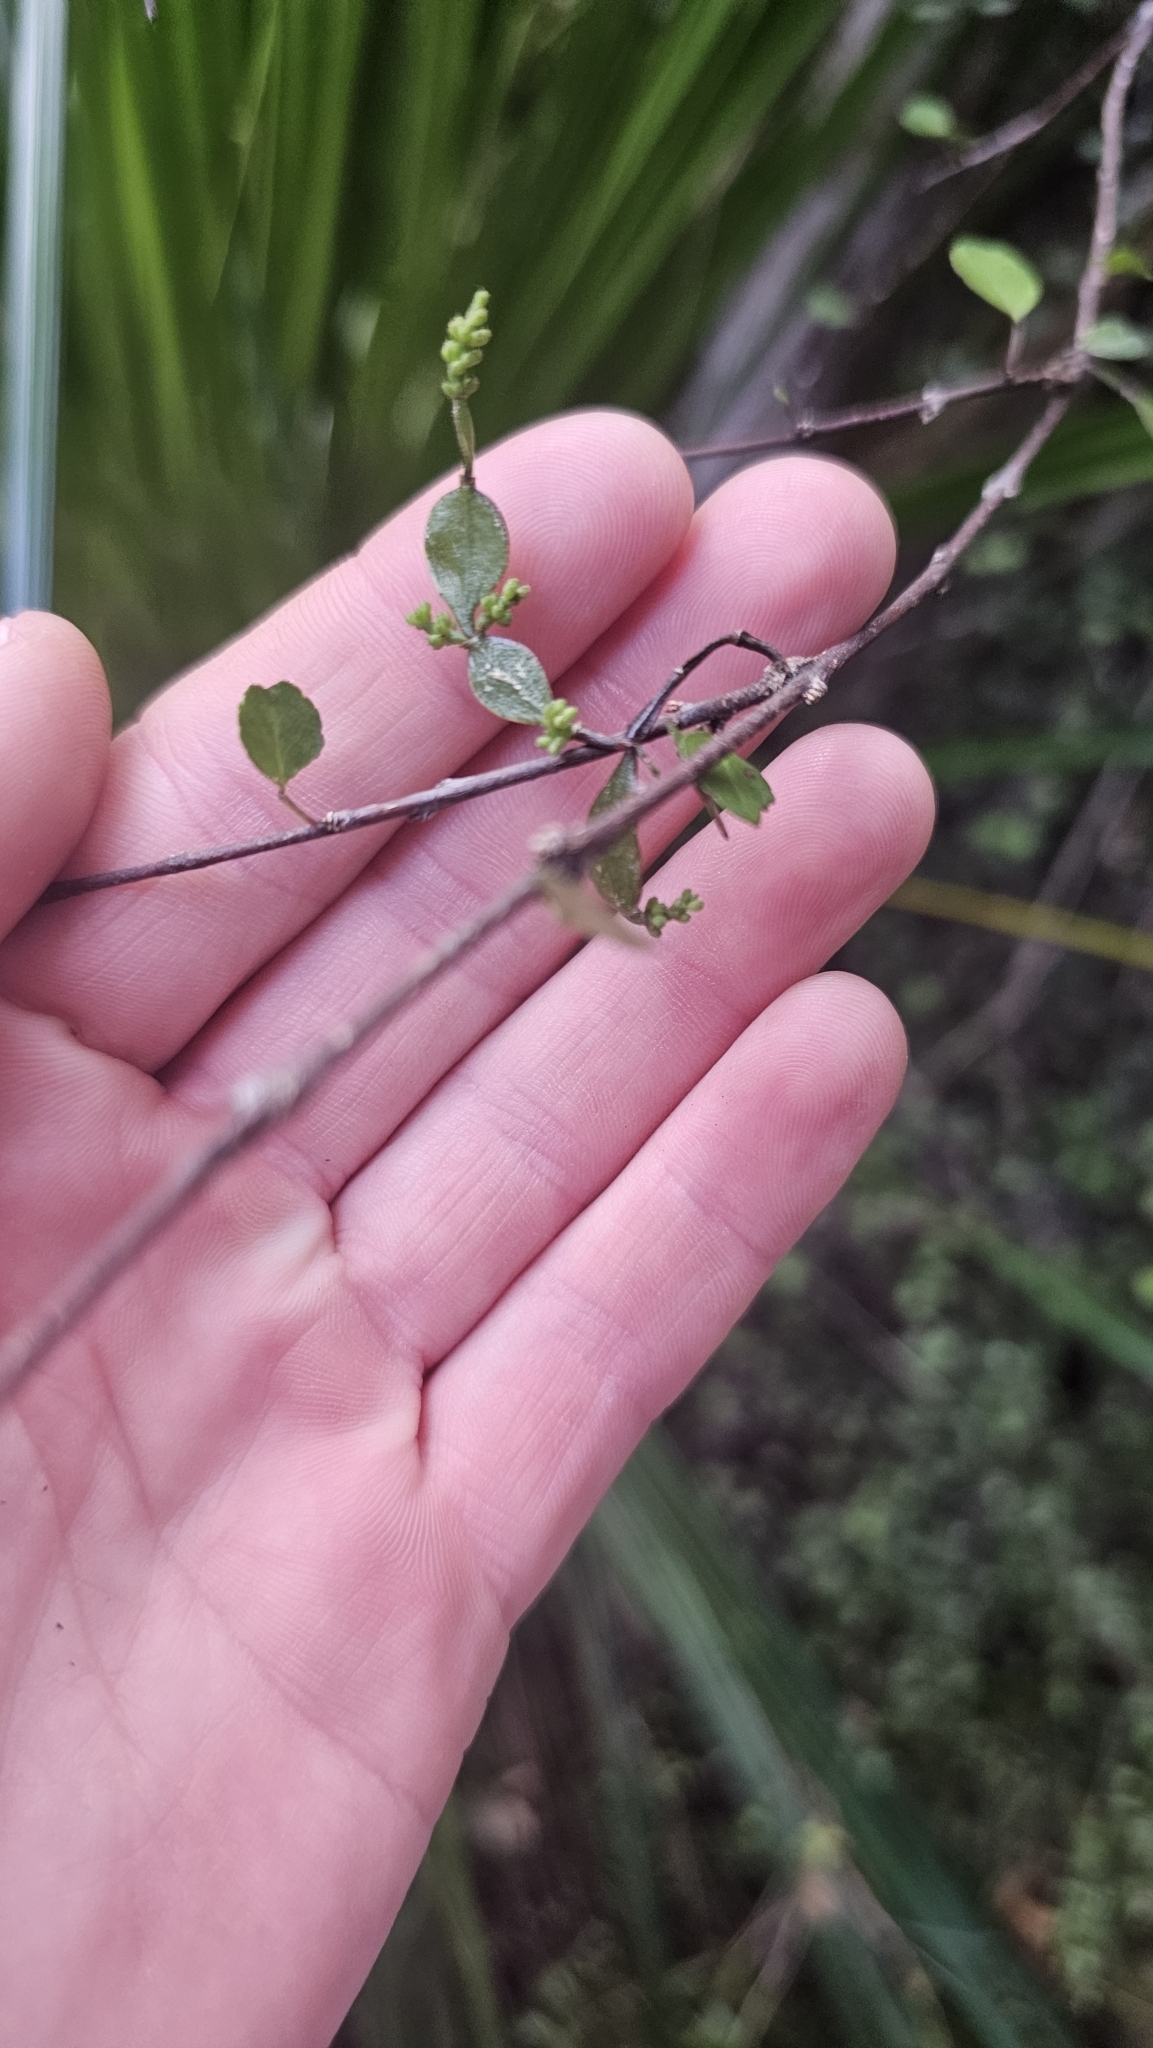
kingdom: Plantae
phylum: Tracheophyta
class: Magnoliopsida
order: Santalales
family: Viscaceae
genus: Korthalsella
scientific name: Korthalsella lindsayi
